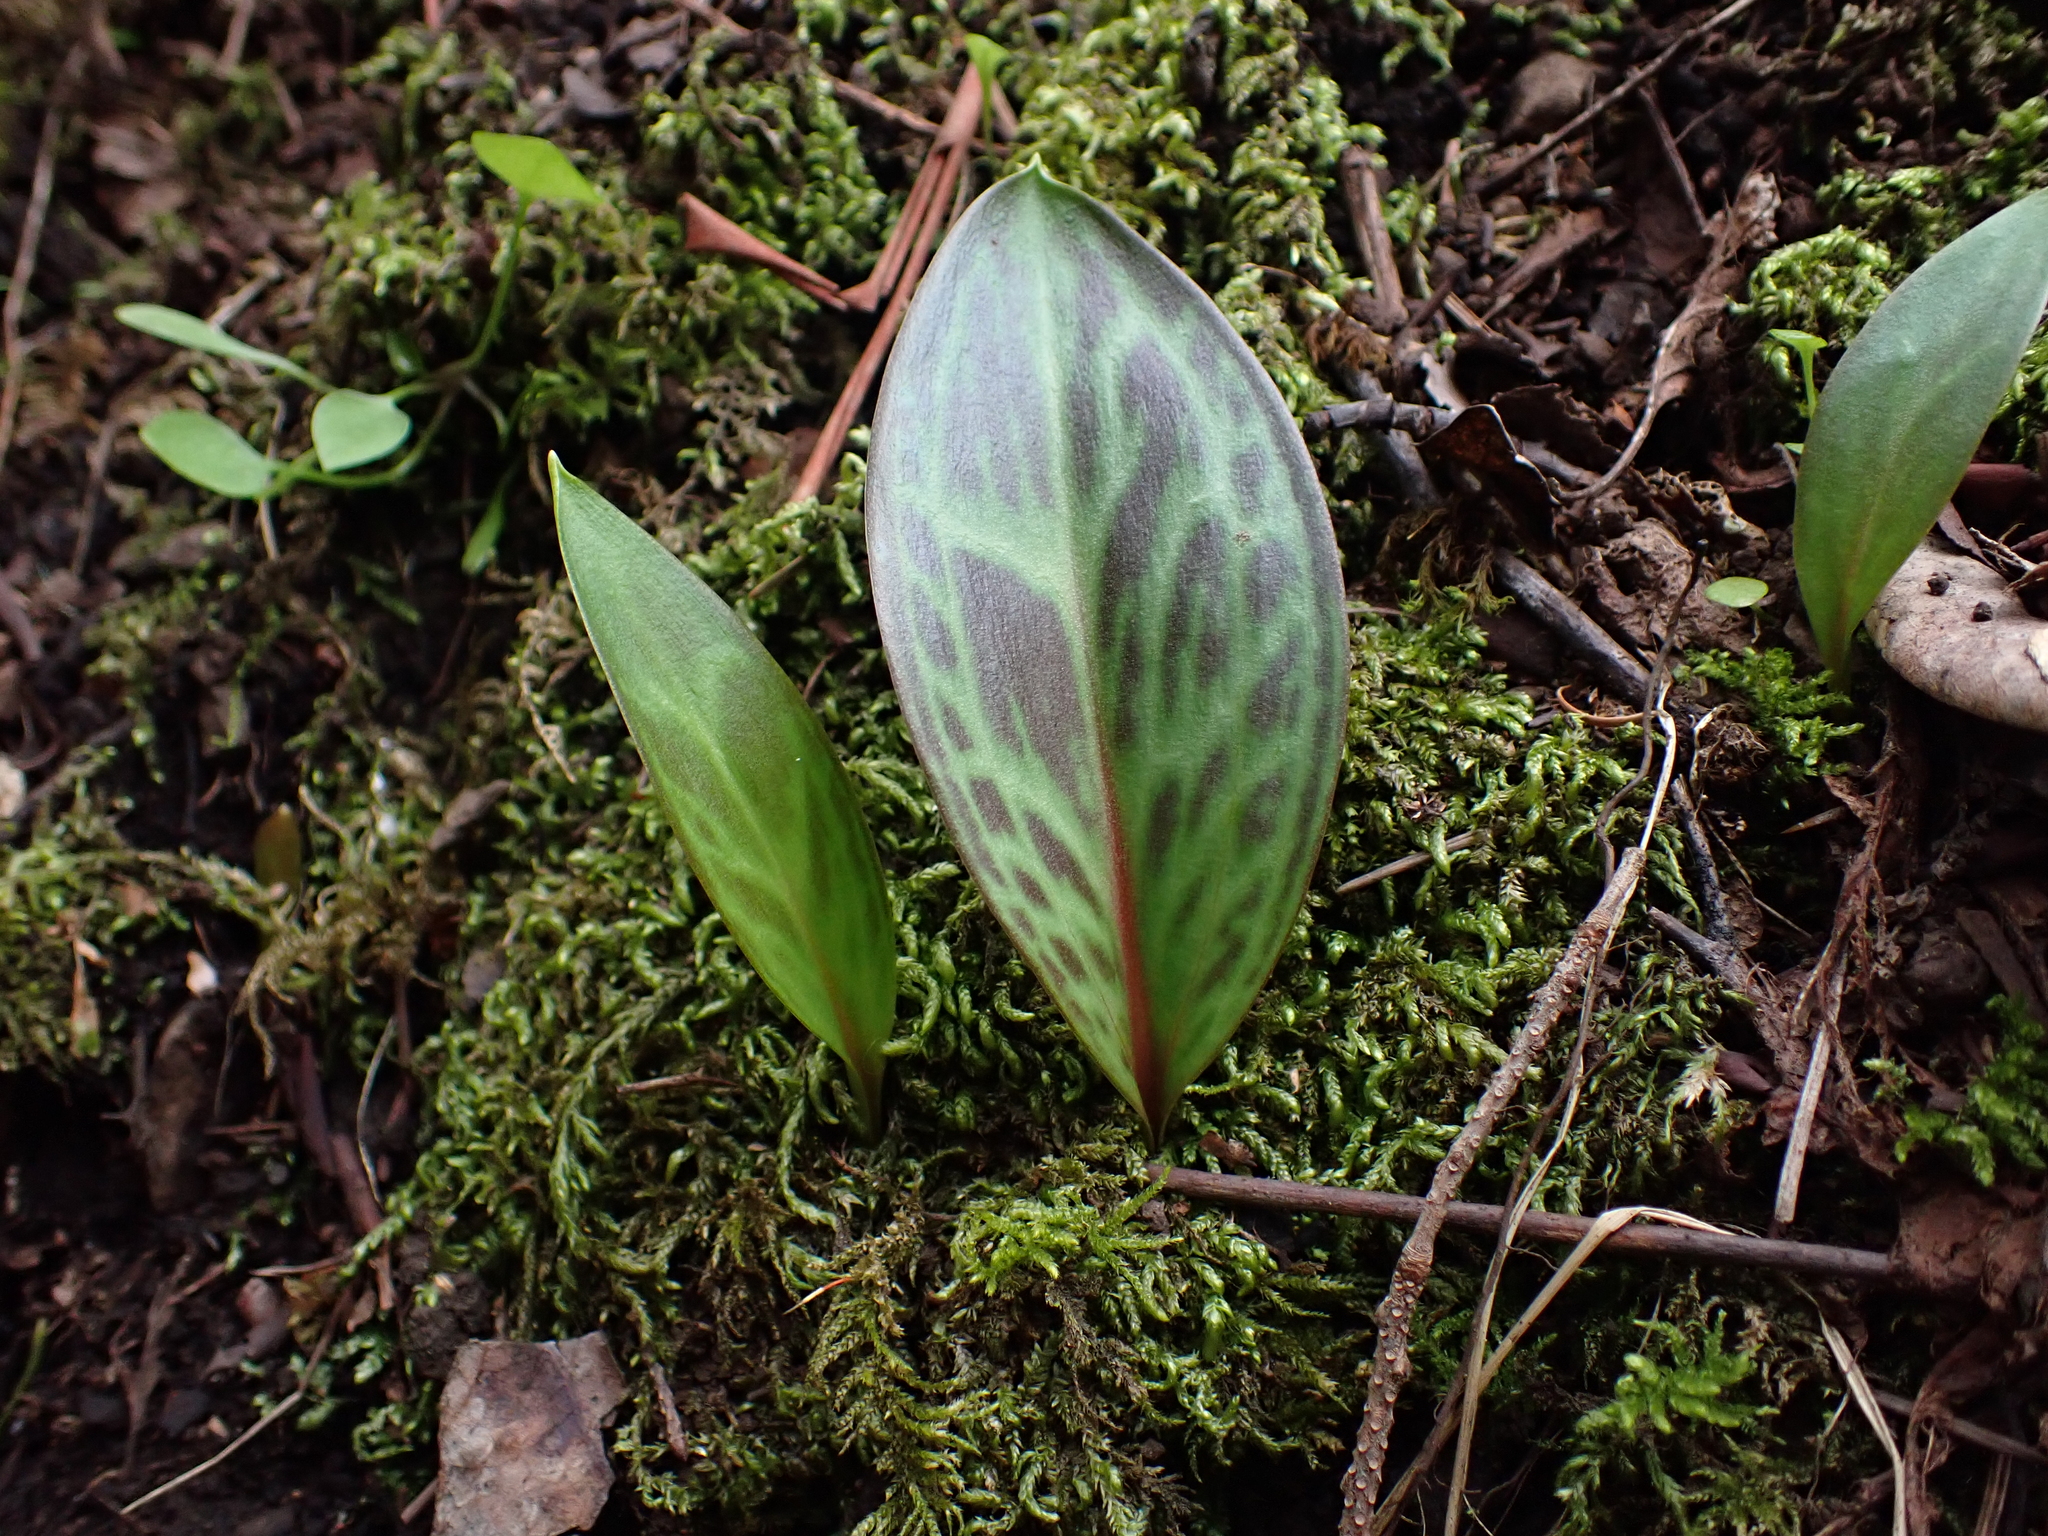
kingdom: Plantae
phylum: Tracheophyta
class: Liliopsida
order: Liliales
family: Liliaceae
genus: Erythronium
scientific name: Erythronium oregonum
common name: Giant adder's-tongue
